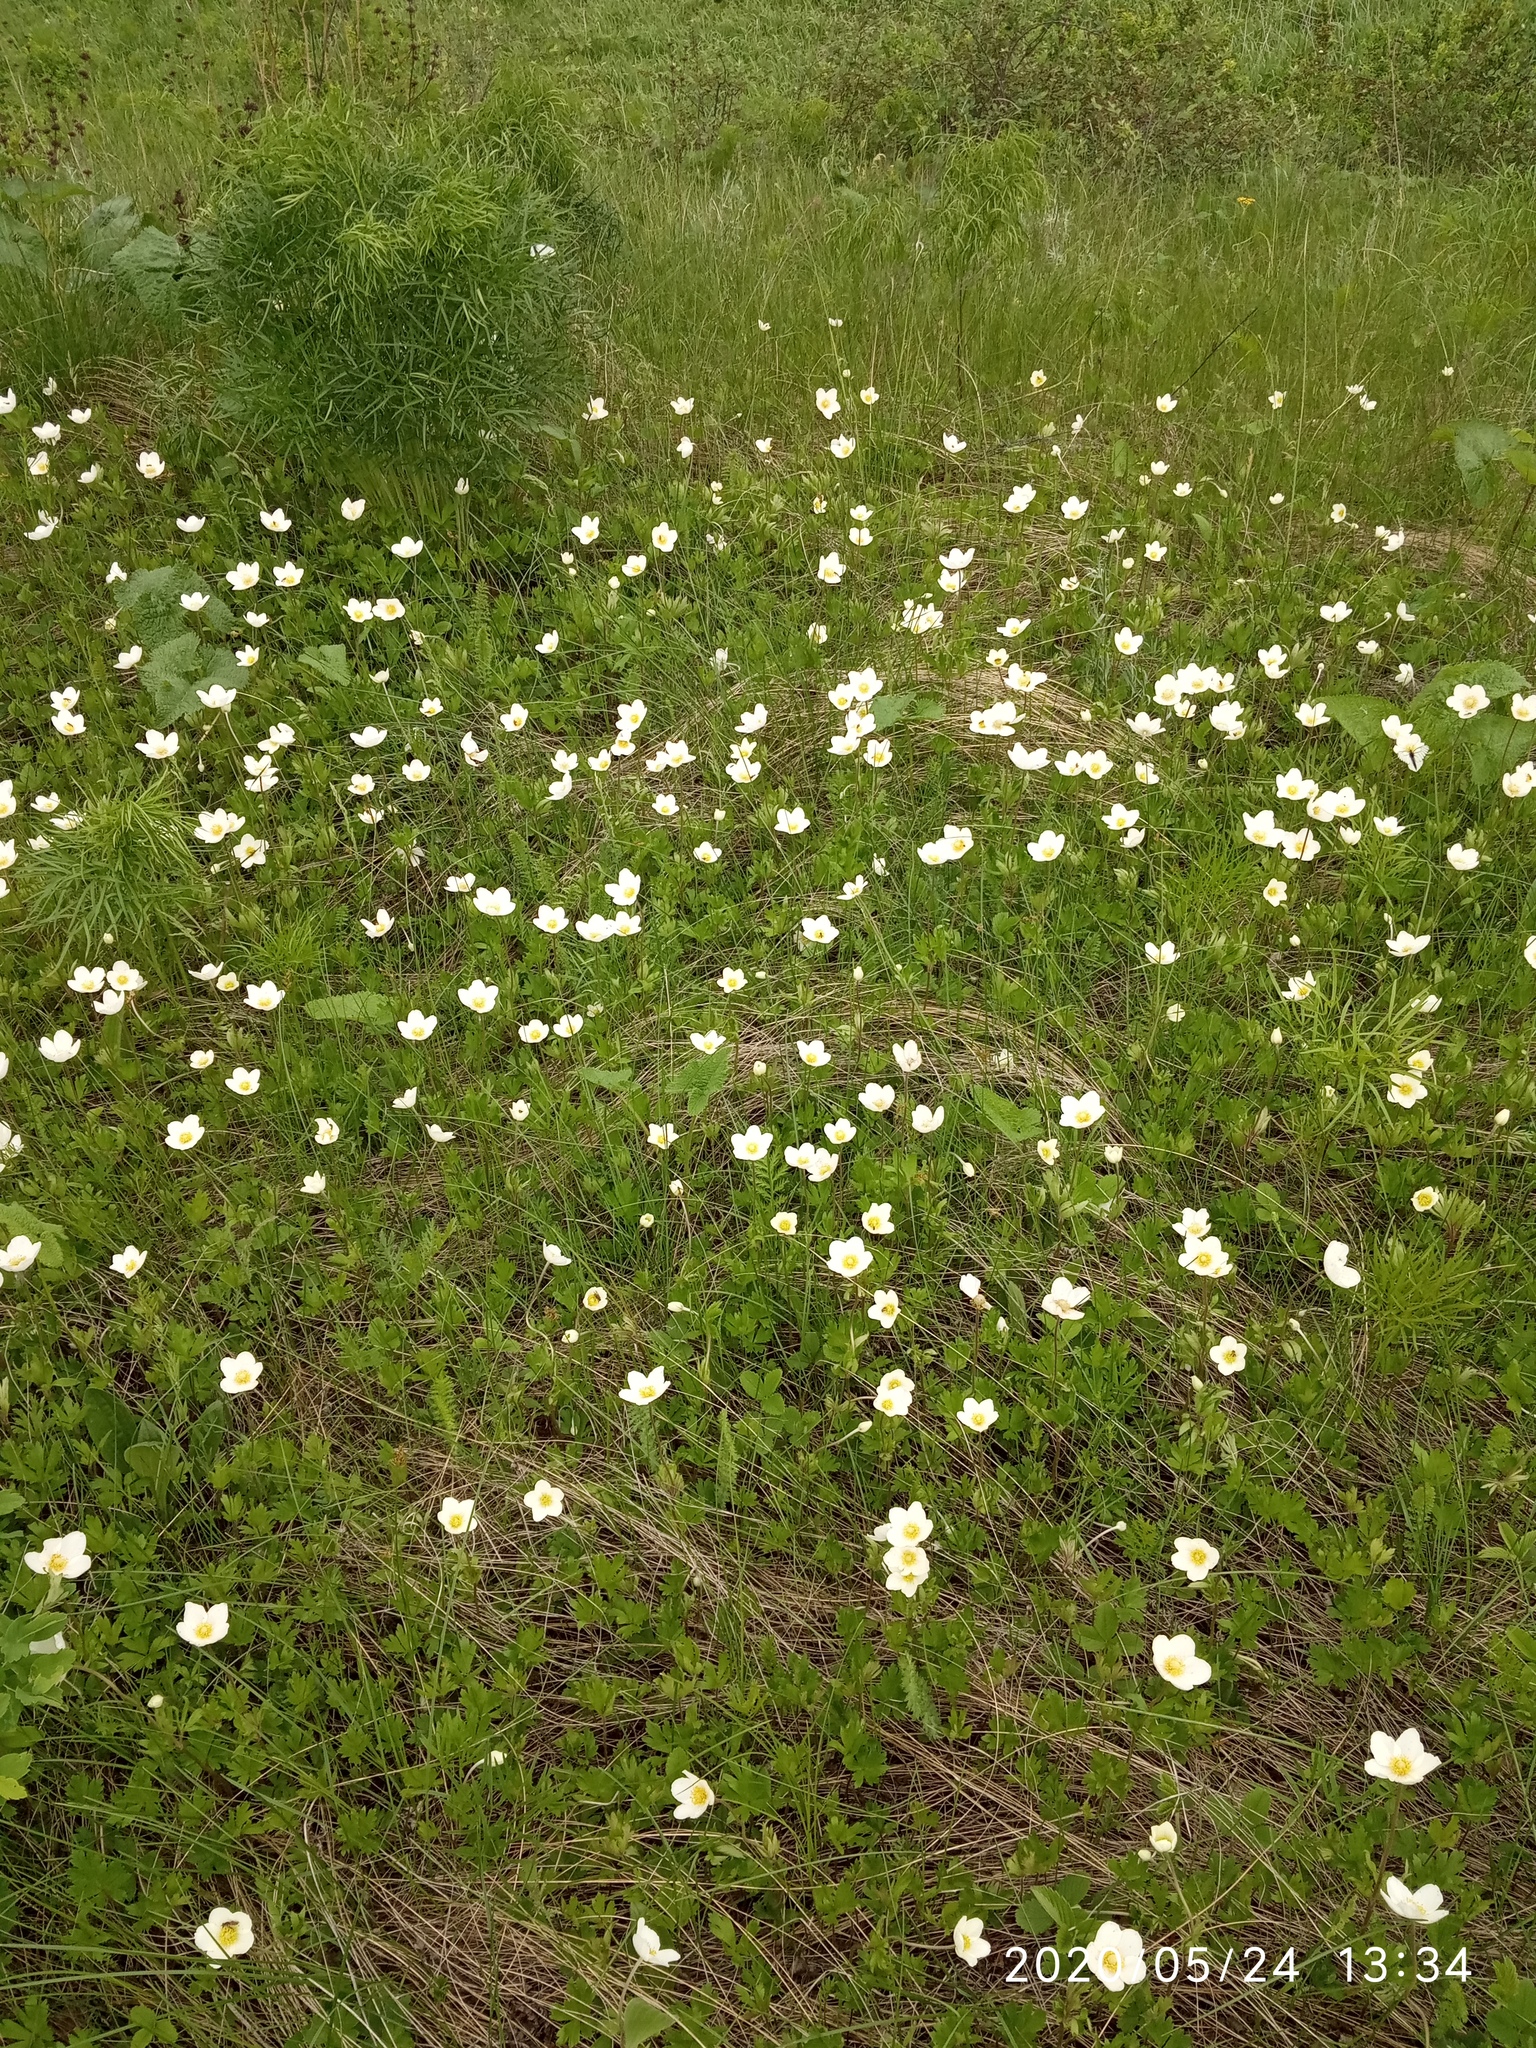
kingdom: Plantae
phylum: Tracheophyta
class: Magnoliopsida
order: Ranunculales
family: Ranunculaceae
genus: Anemone
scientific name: Anemone sylvestris
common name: Snowdrop anemone
